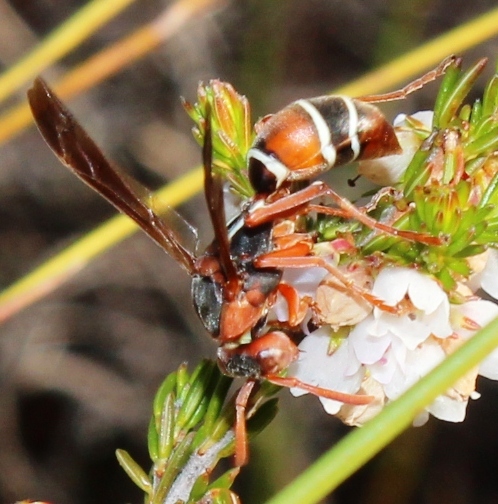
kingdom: Animalia
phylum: Arthropoda
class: Insecta
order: Hymenoptera
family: Eumenidae
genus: Polistes
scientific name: Polistes marginalis
